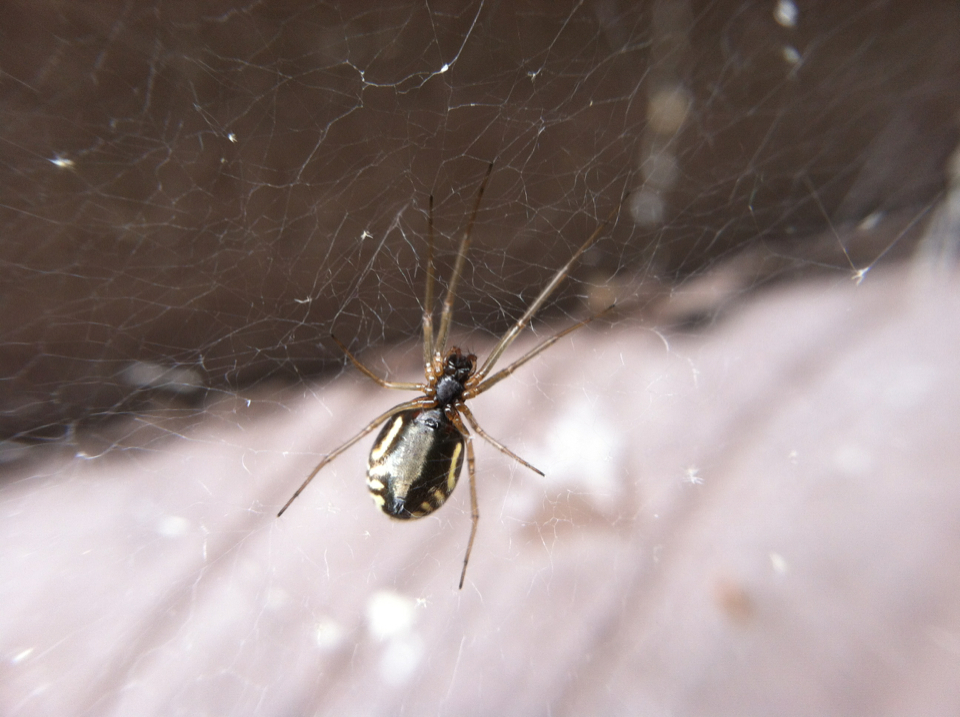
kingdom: Animalia
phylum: Arthropoda
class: Arachnida
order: Araneae
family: Linyphiidae
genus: Frontinella
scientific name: Frontinella pyramitela
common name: Bowl-and-doily spider
